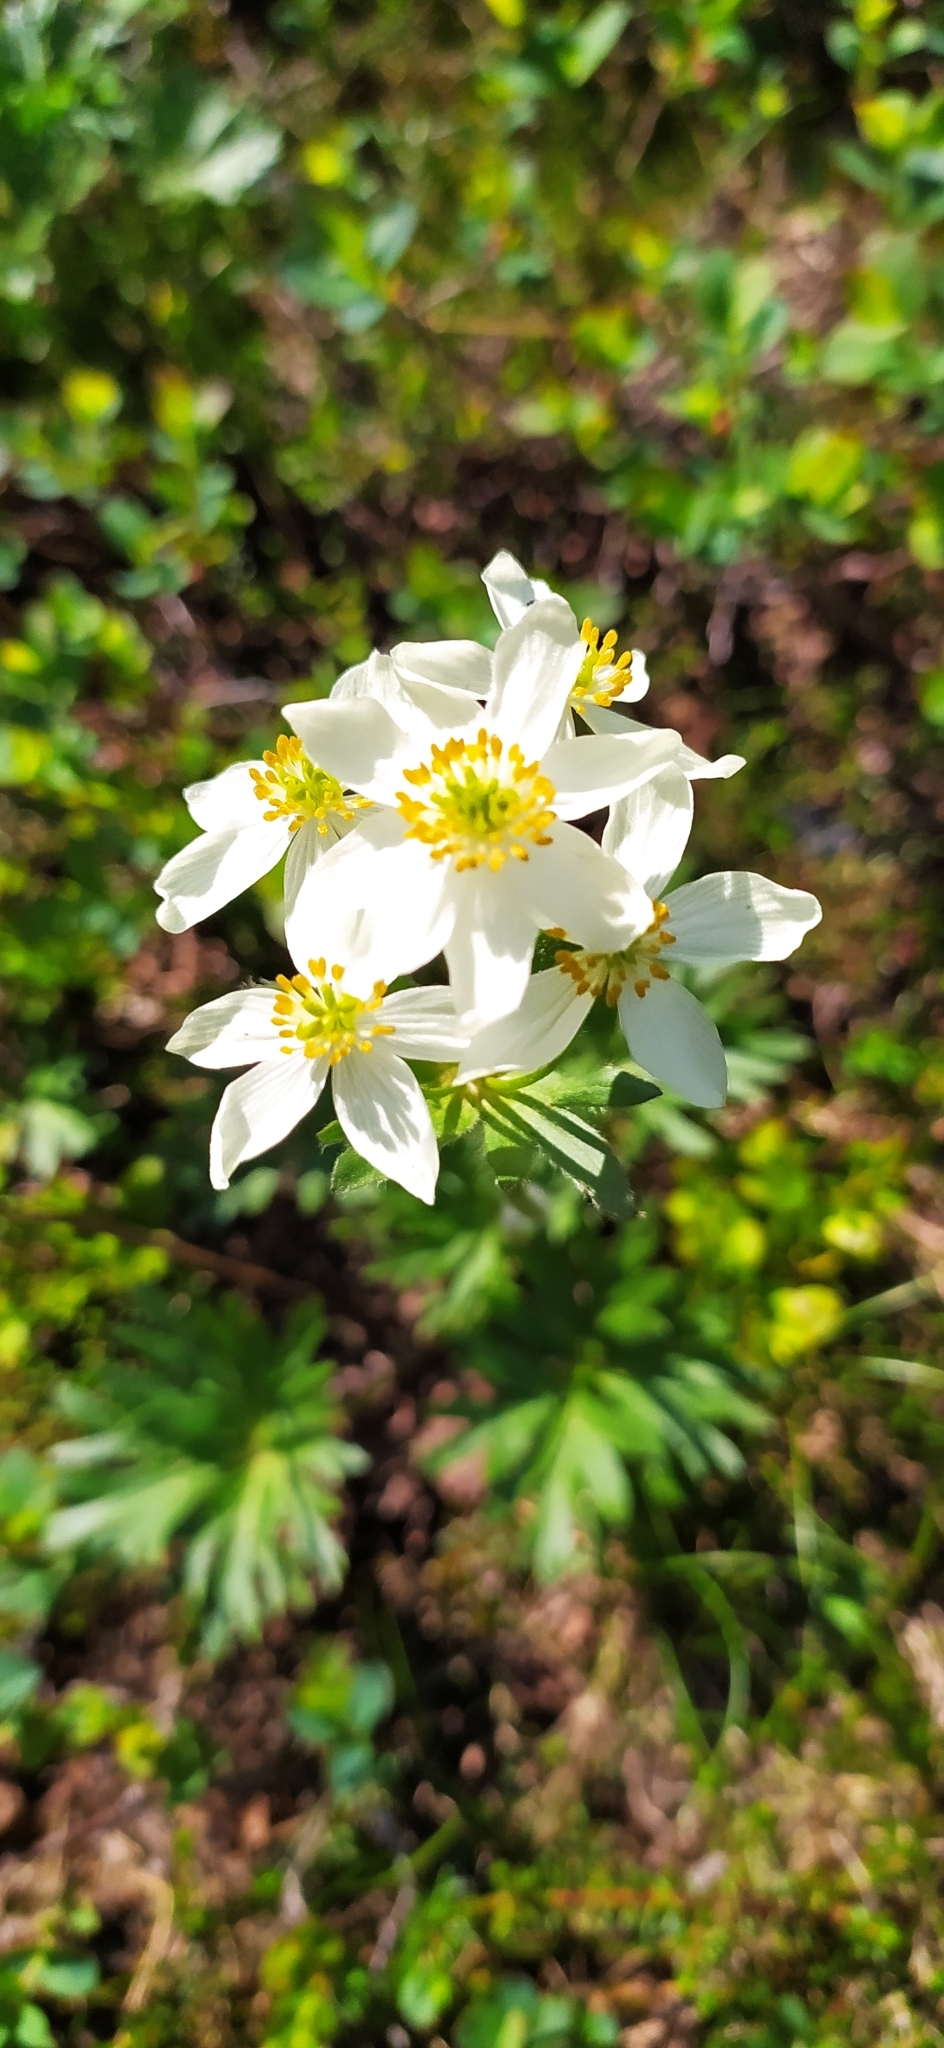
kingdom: Plantae
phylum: Tracheophyta
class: Magnoliopsida
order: Ranunculales
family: Ranunculaceae
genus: Anemonastrum
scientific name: Anemonastrum biarmiense
